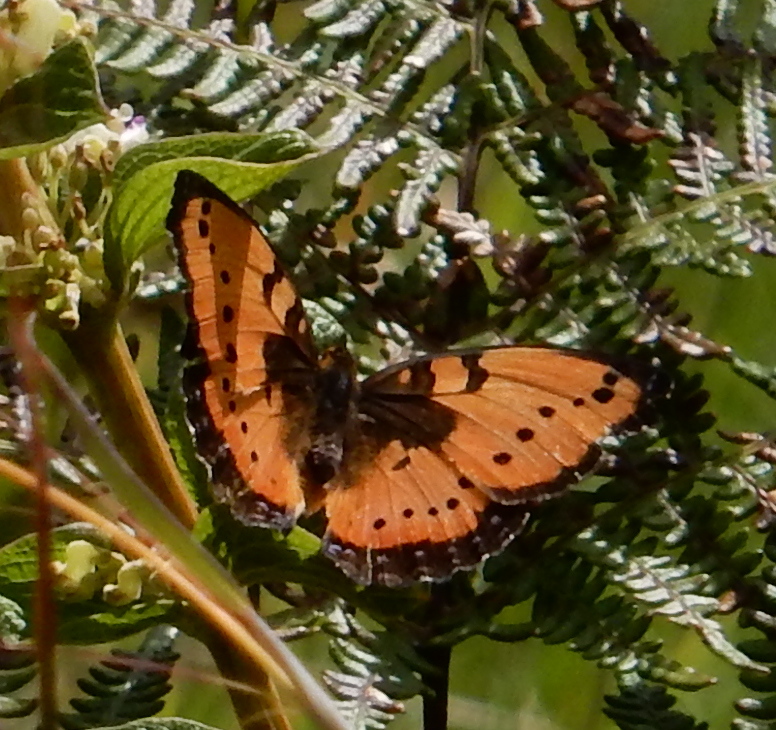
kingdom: Animalia
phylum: Arthropoda
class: Insecta
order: Lepidoptera
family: Nymphalidae
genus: Precis
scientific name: Precis octavia
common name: Gaudy commodore
